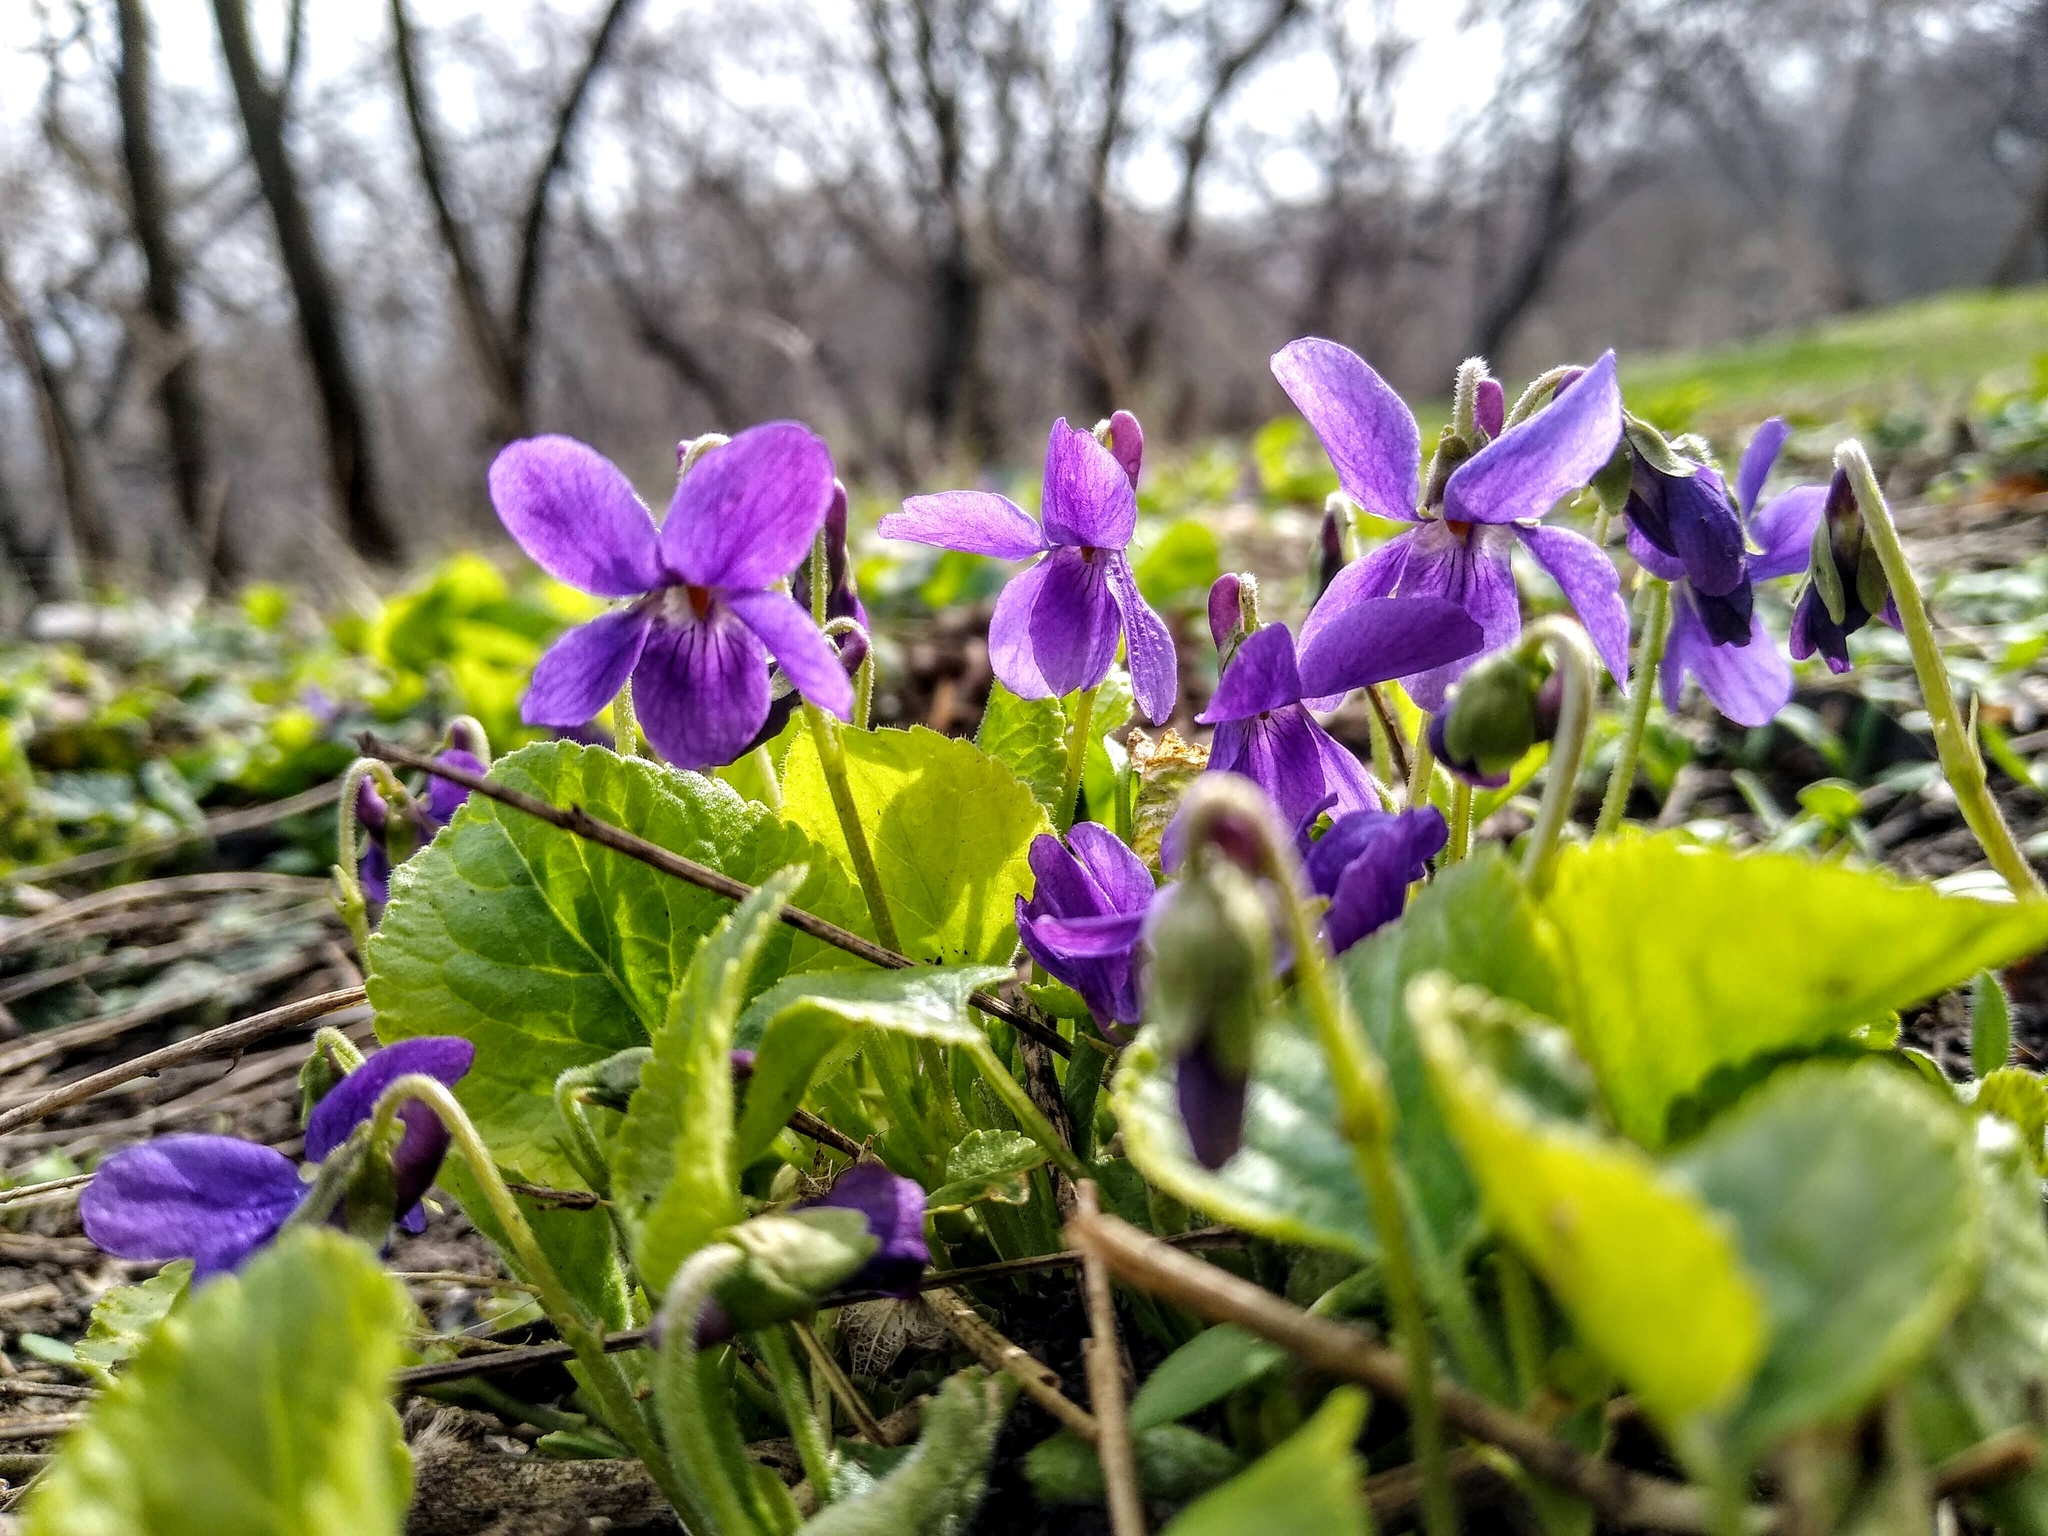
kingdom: Plantae
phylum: Tracheophyta
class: Magnoliopsida
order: Malpighiales
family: Violaceae
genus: Viola
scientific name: Viola odorata
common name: Sweet violet
